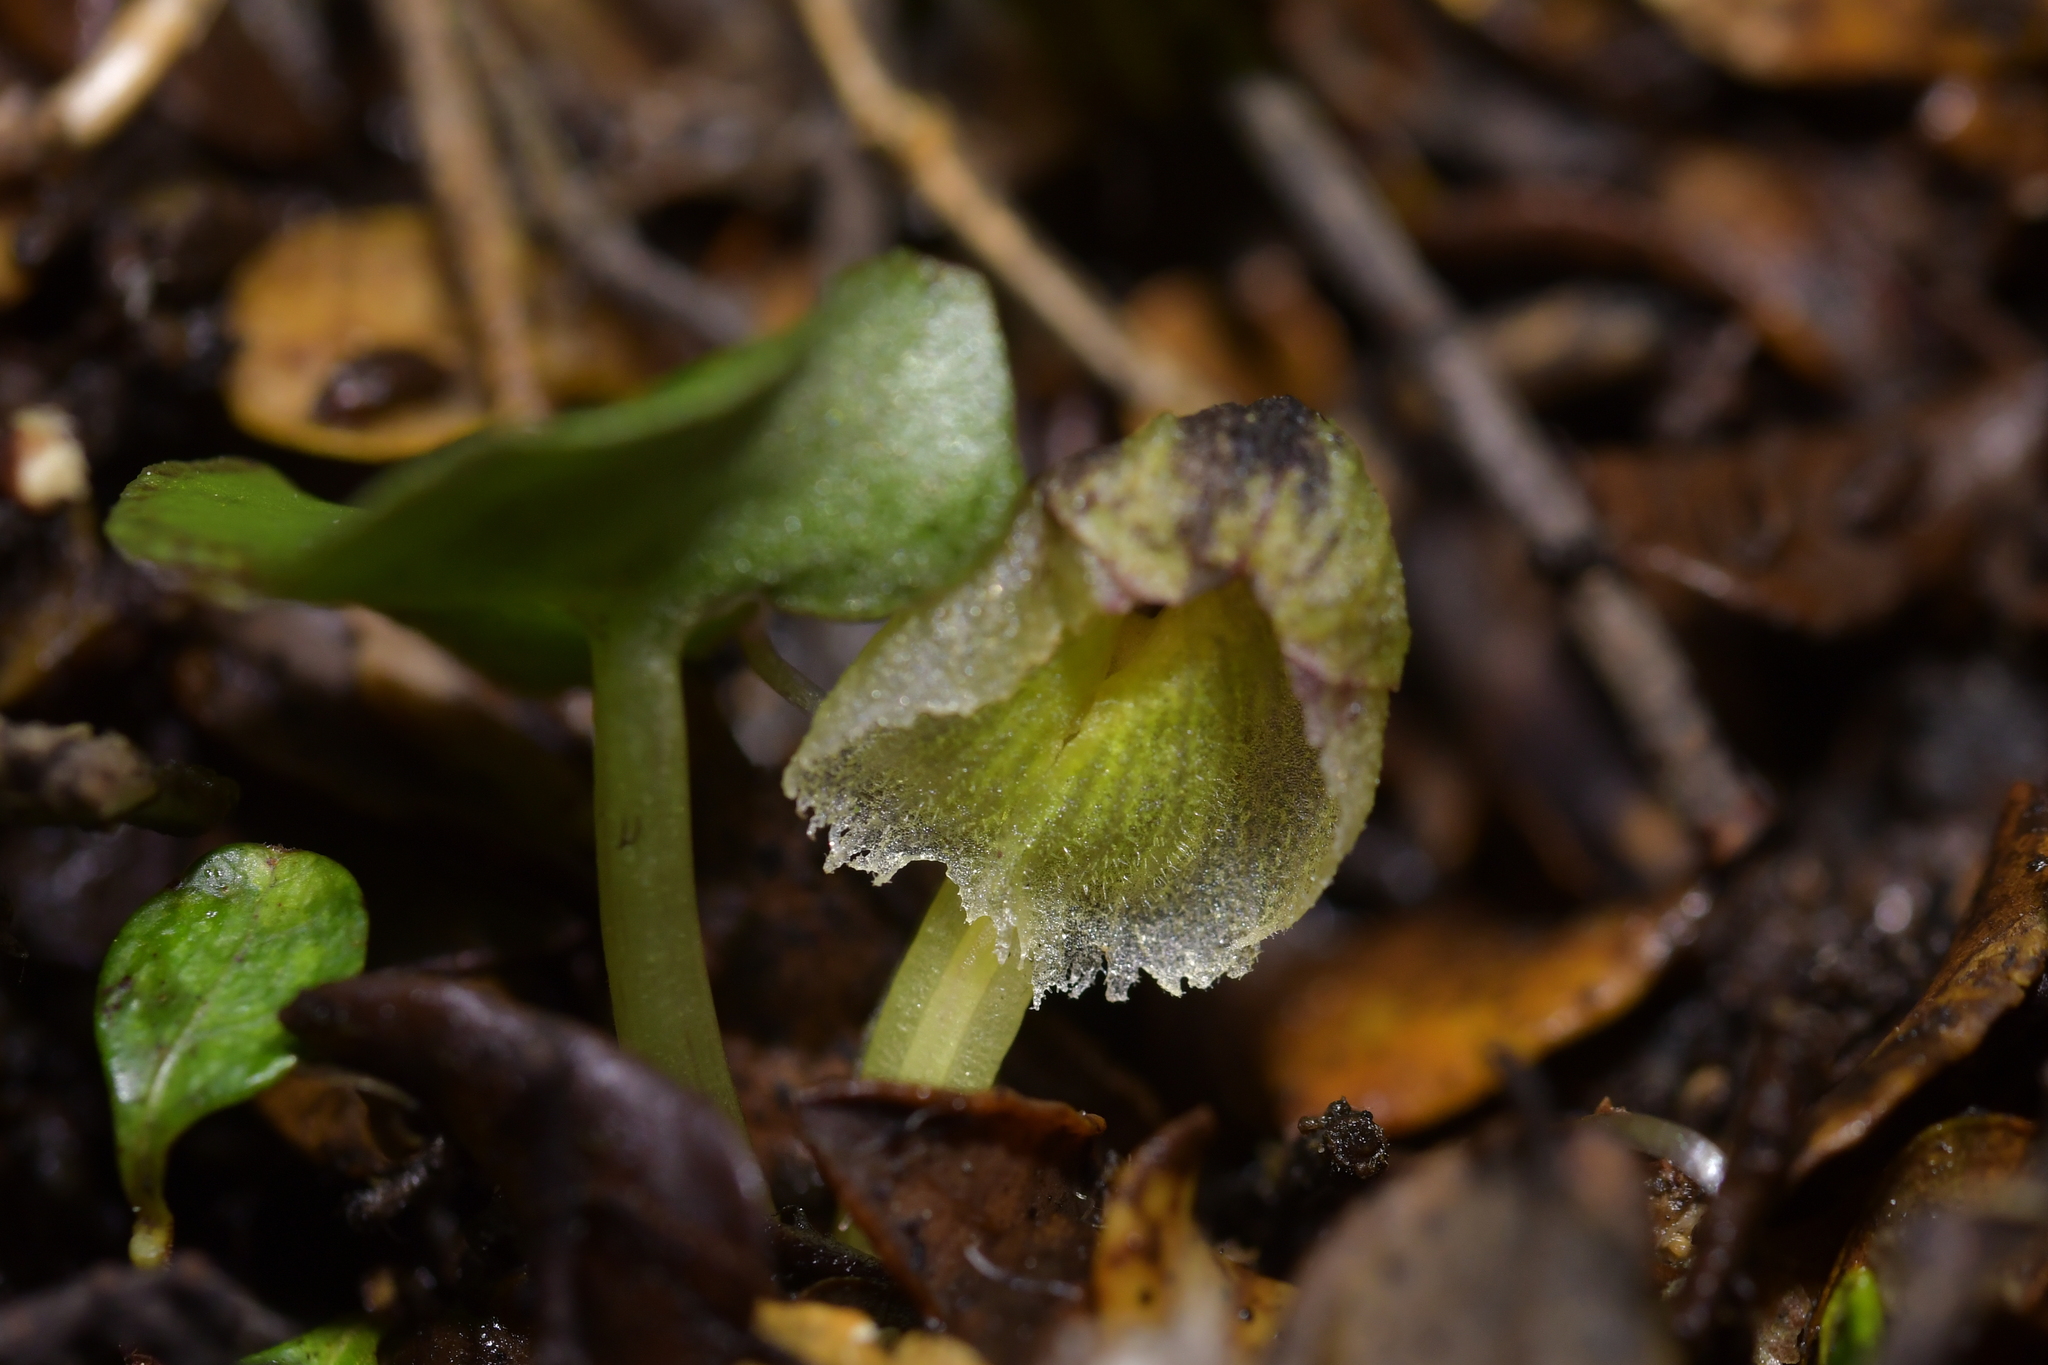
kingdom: Plantae
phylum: Tracheophyta
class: Liliopsida
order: Asparagales
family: Orchidaceae
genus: Corybas
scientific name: Corybas walliae
